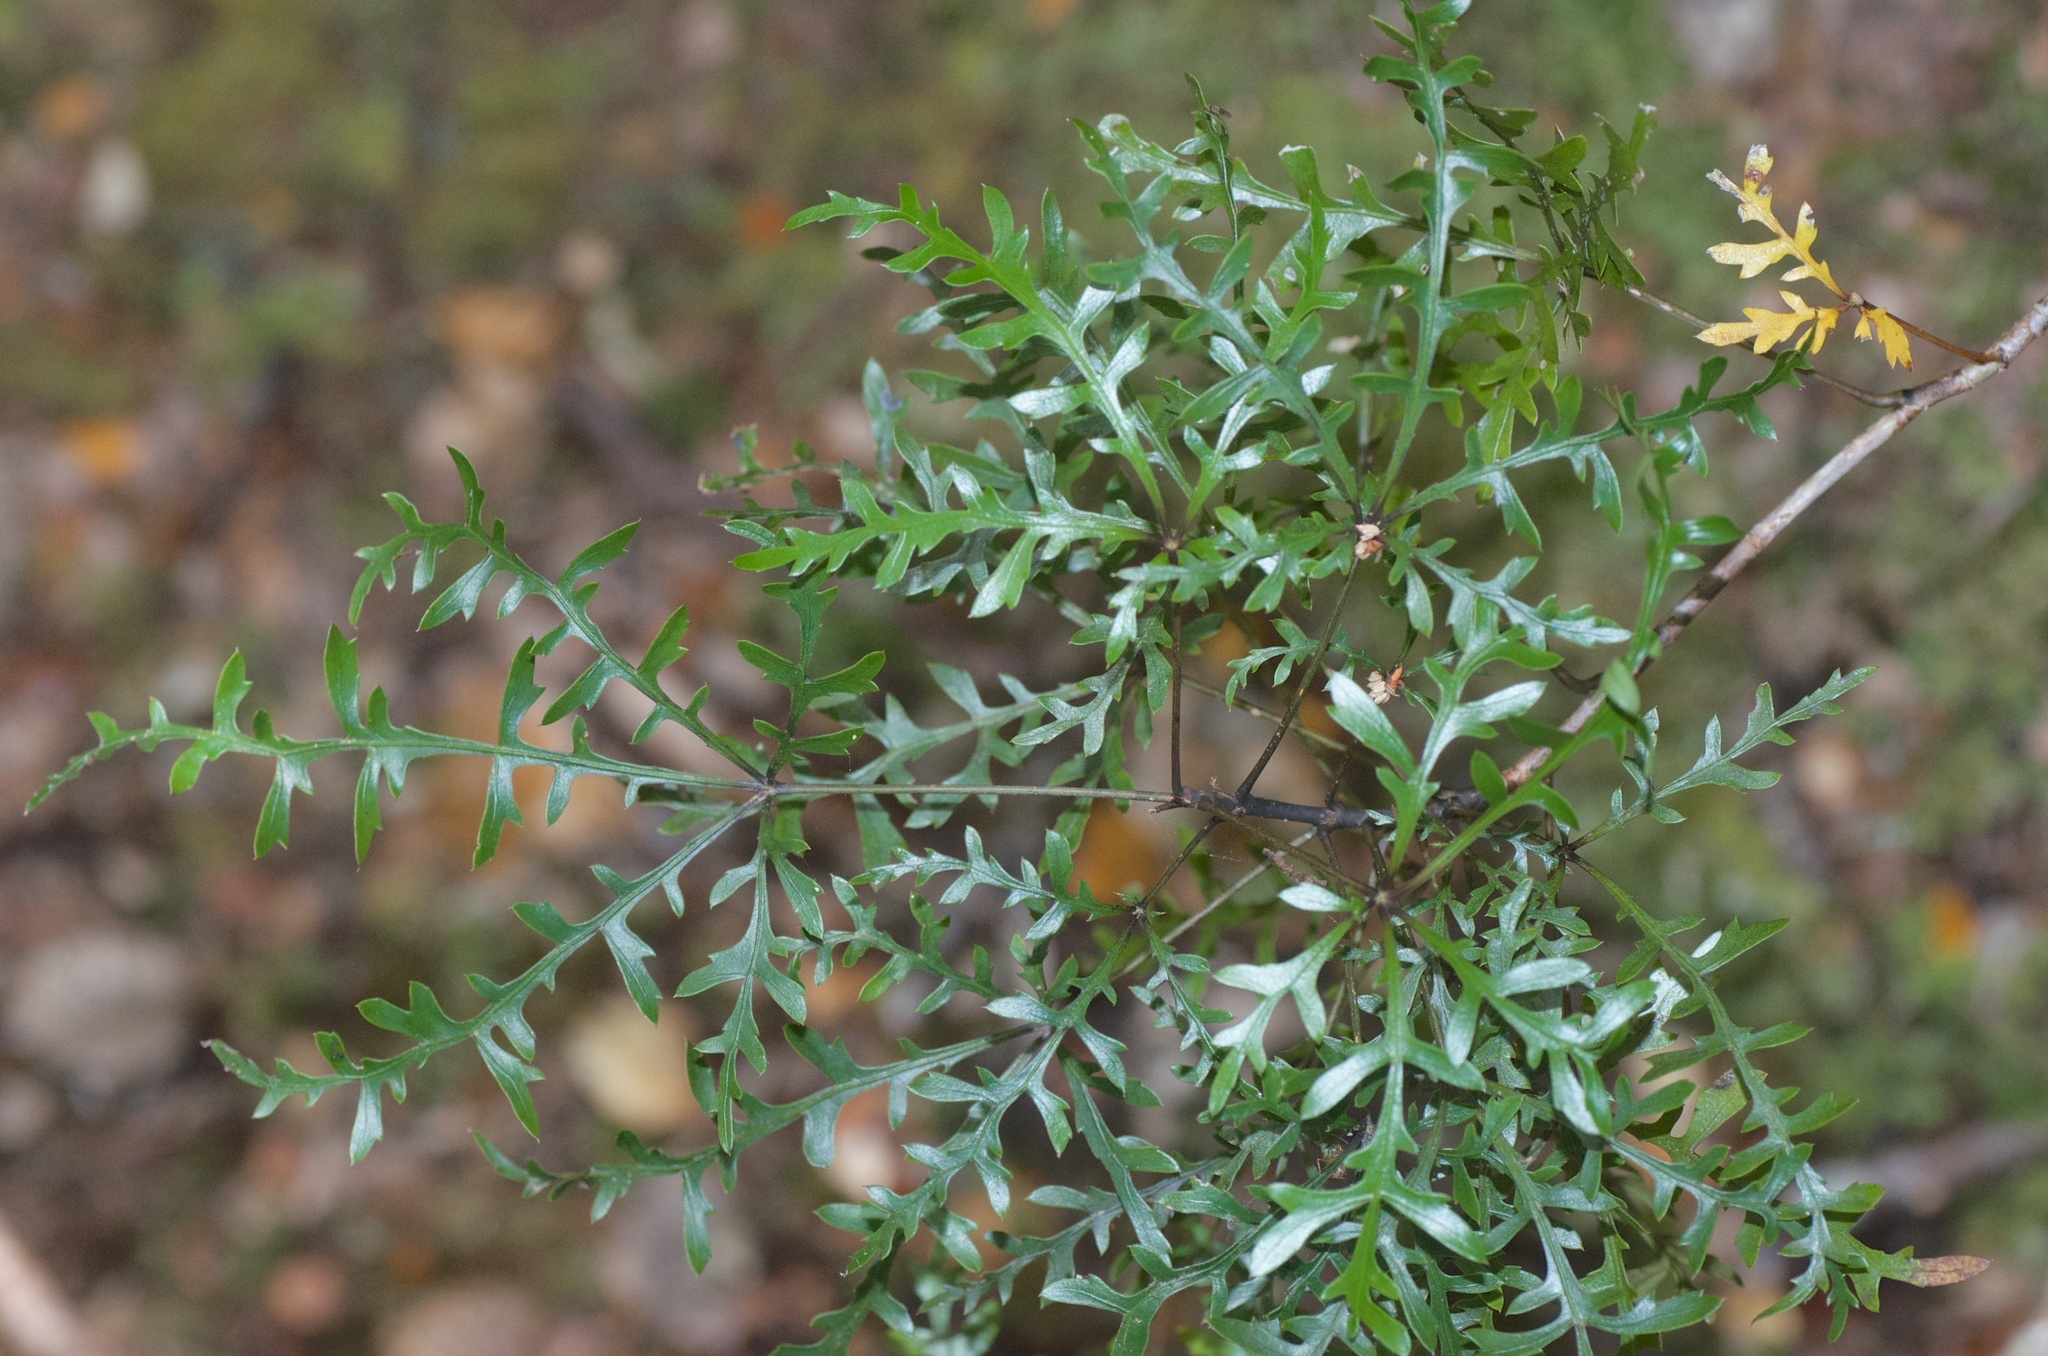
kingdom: Plantae
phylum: Tracheophyta
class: Magnoliopsida
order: Apiales
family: Araliaceae
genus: Raukaua
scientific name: Raukaua simplex
